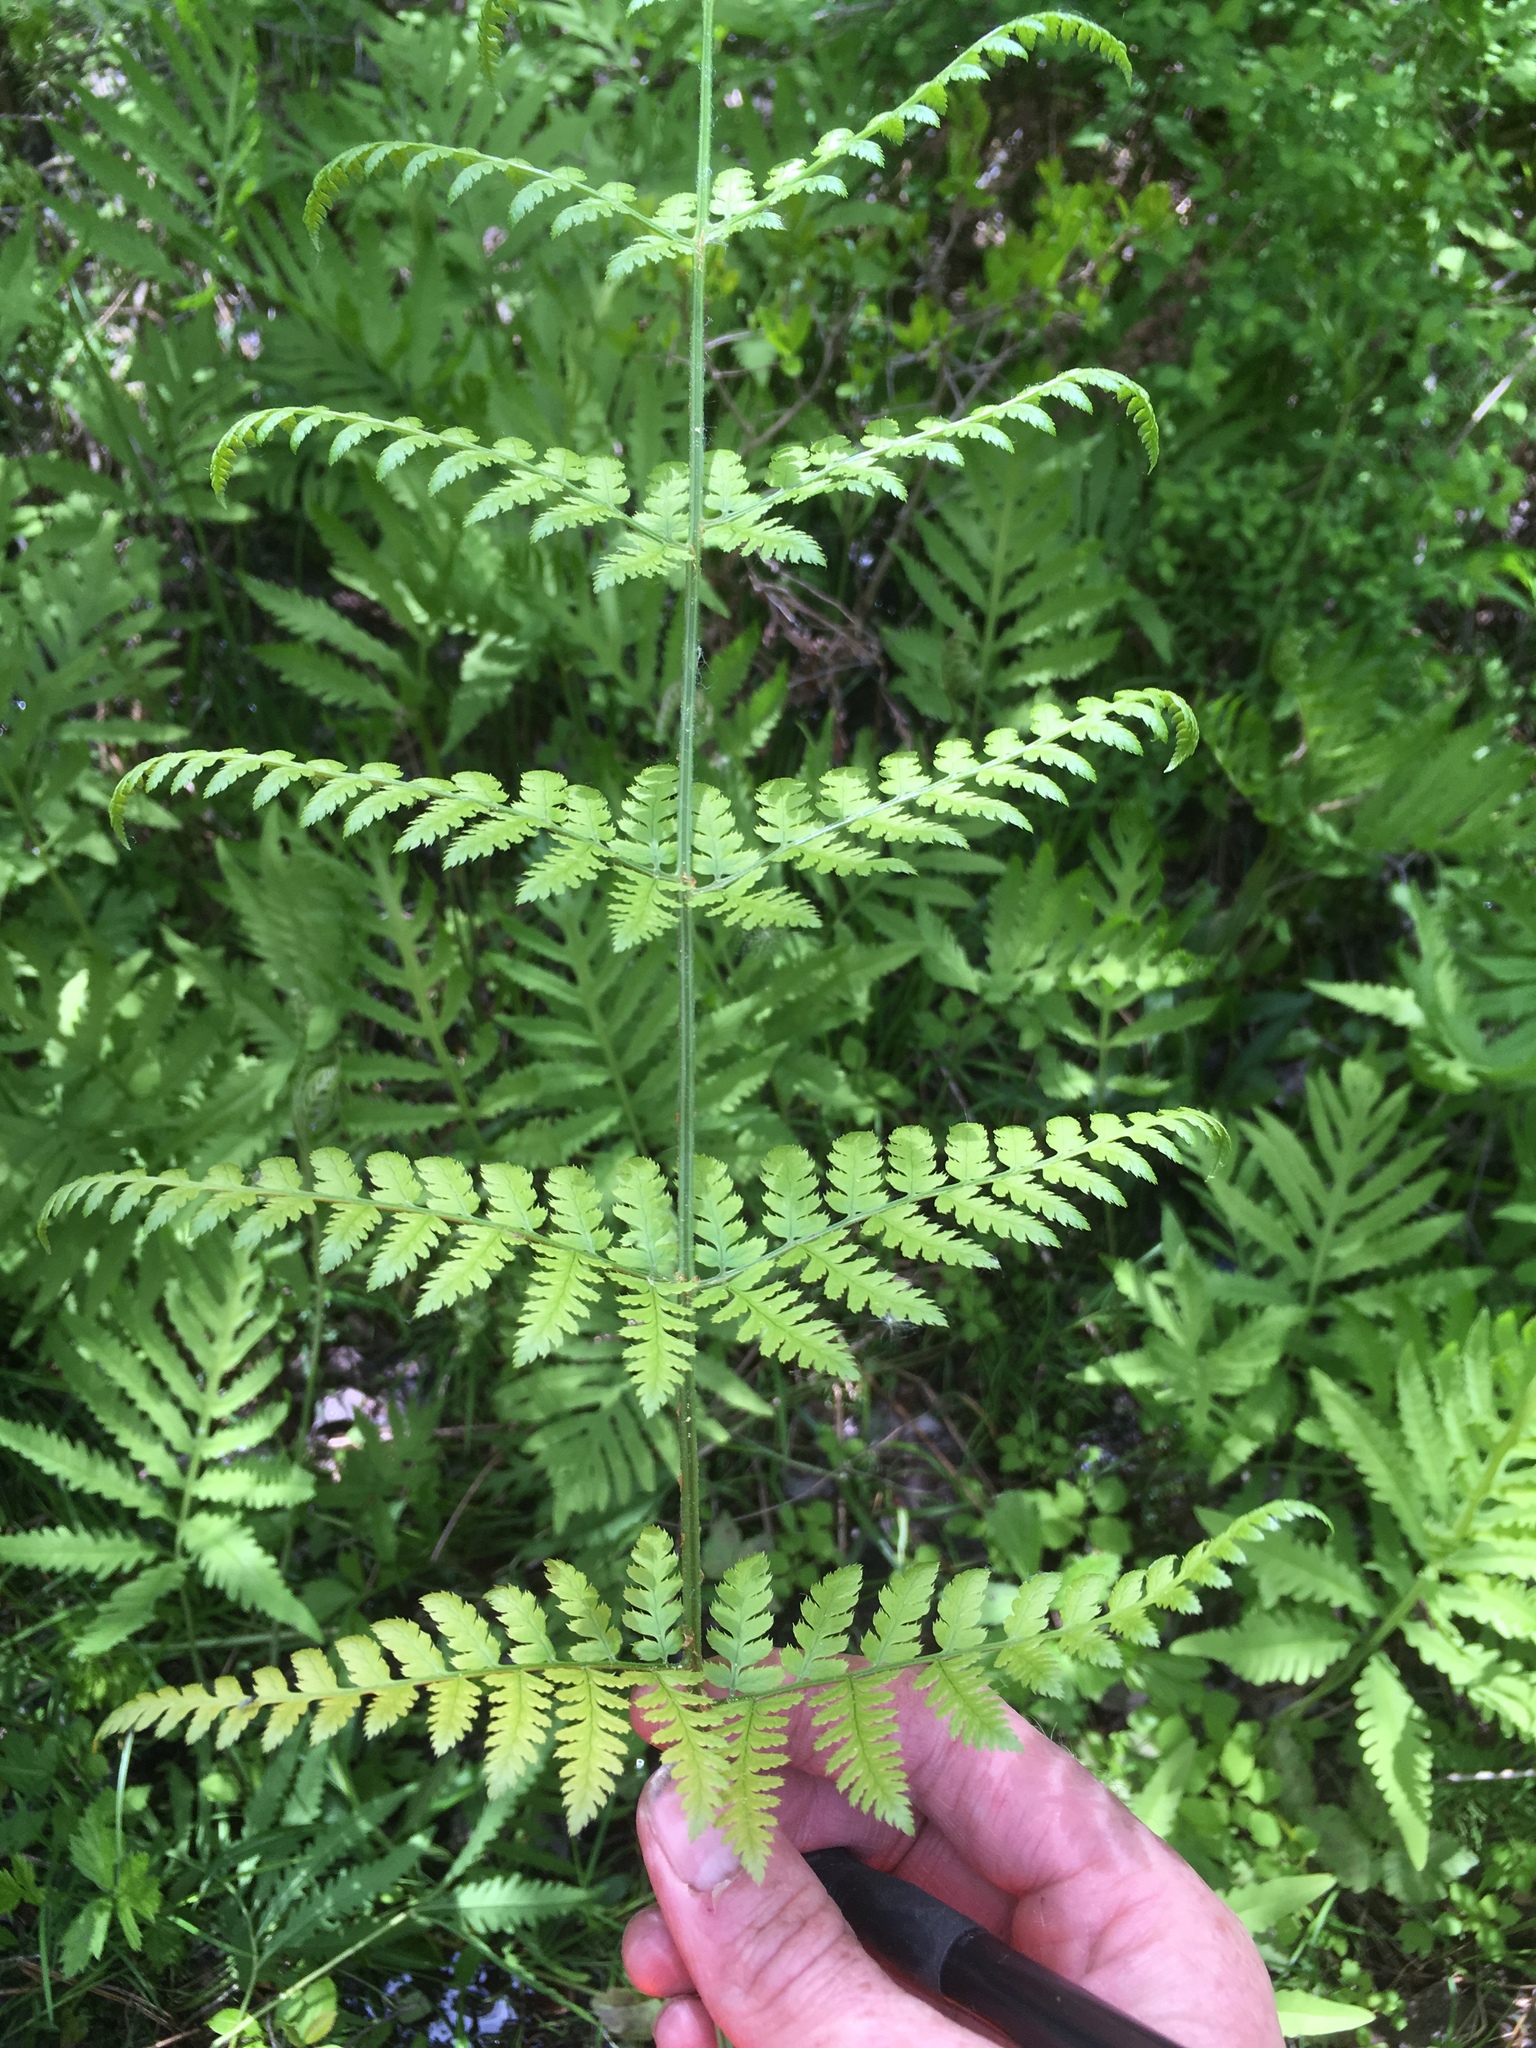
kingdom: Plantae
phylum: Tracheophyta
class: Polypodiopsida
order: Polypodiales
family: Dryopteridaceae
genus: Dryopteris
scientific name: Dryopteris triploidea
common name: Fruitful wood fern
